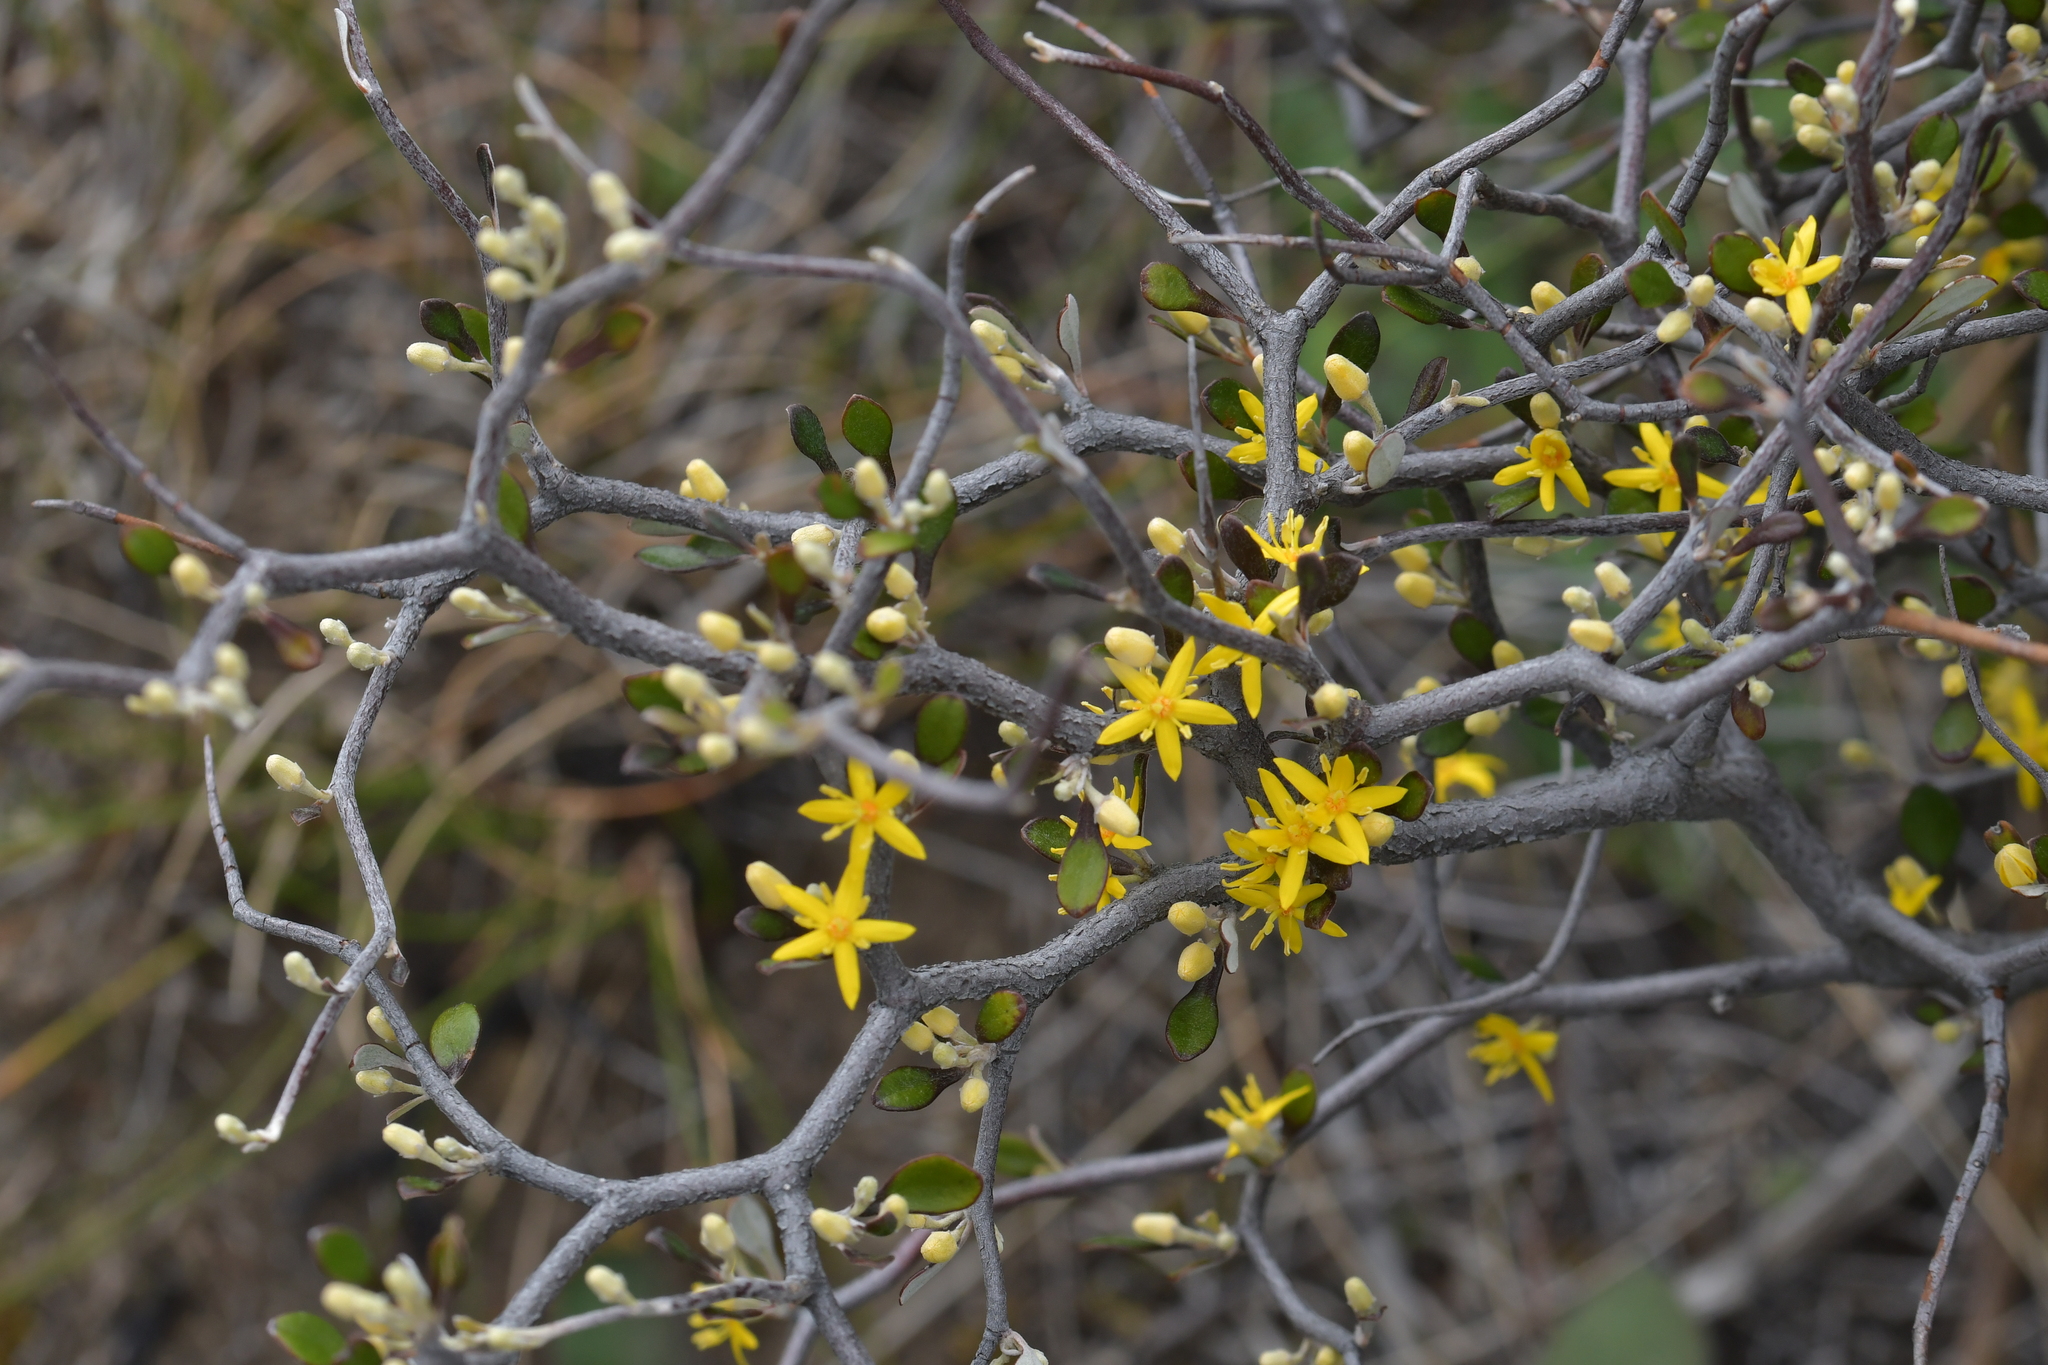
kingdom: Plantae
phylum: Tracheophyta
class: Magnoliopsida
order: Asterales
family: Argophyllaceae
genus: Corokia
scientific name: Corokia cotoneaster
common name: Wire nettingbush
